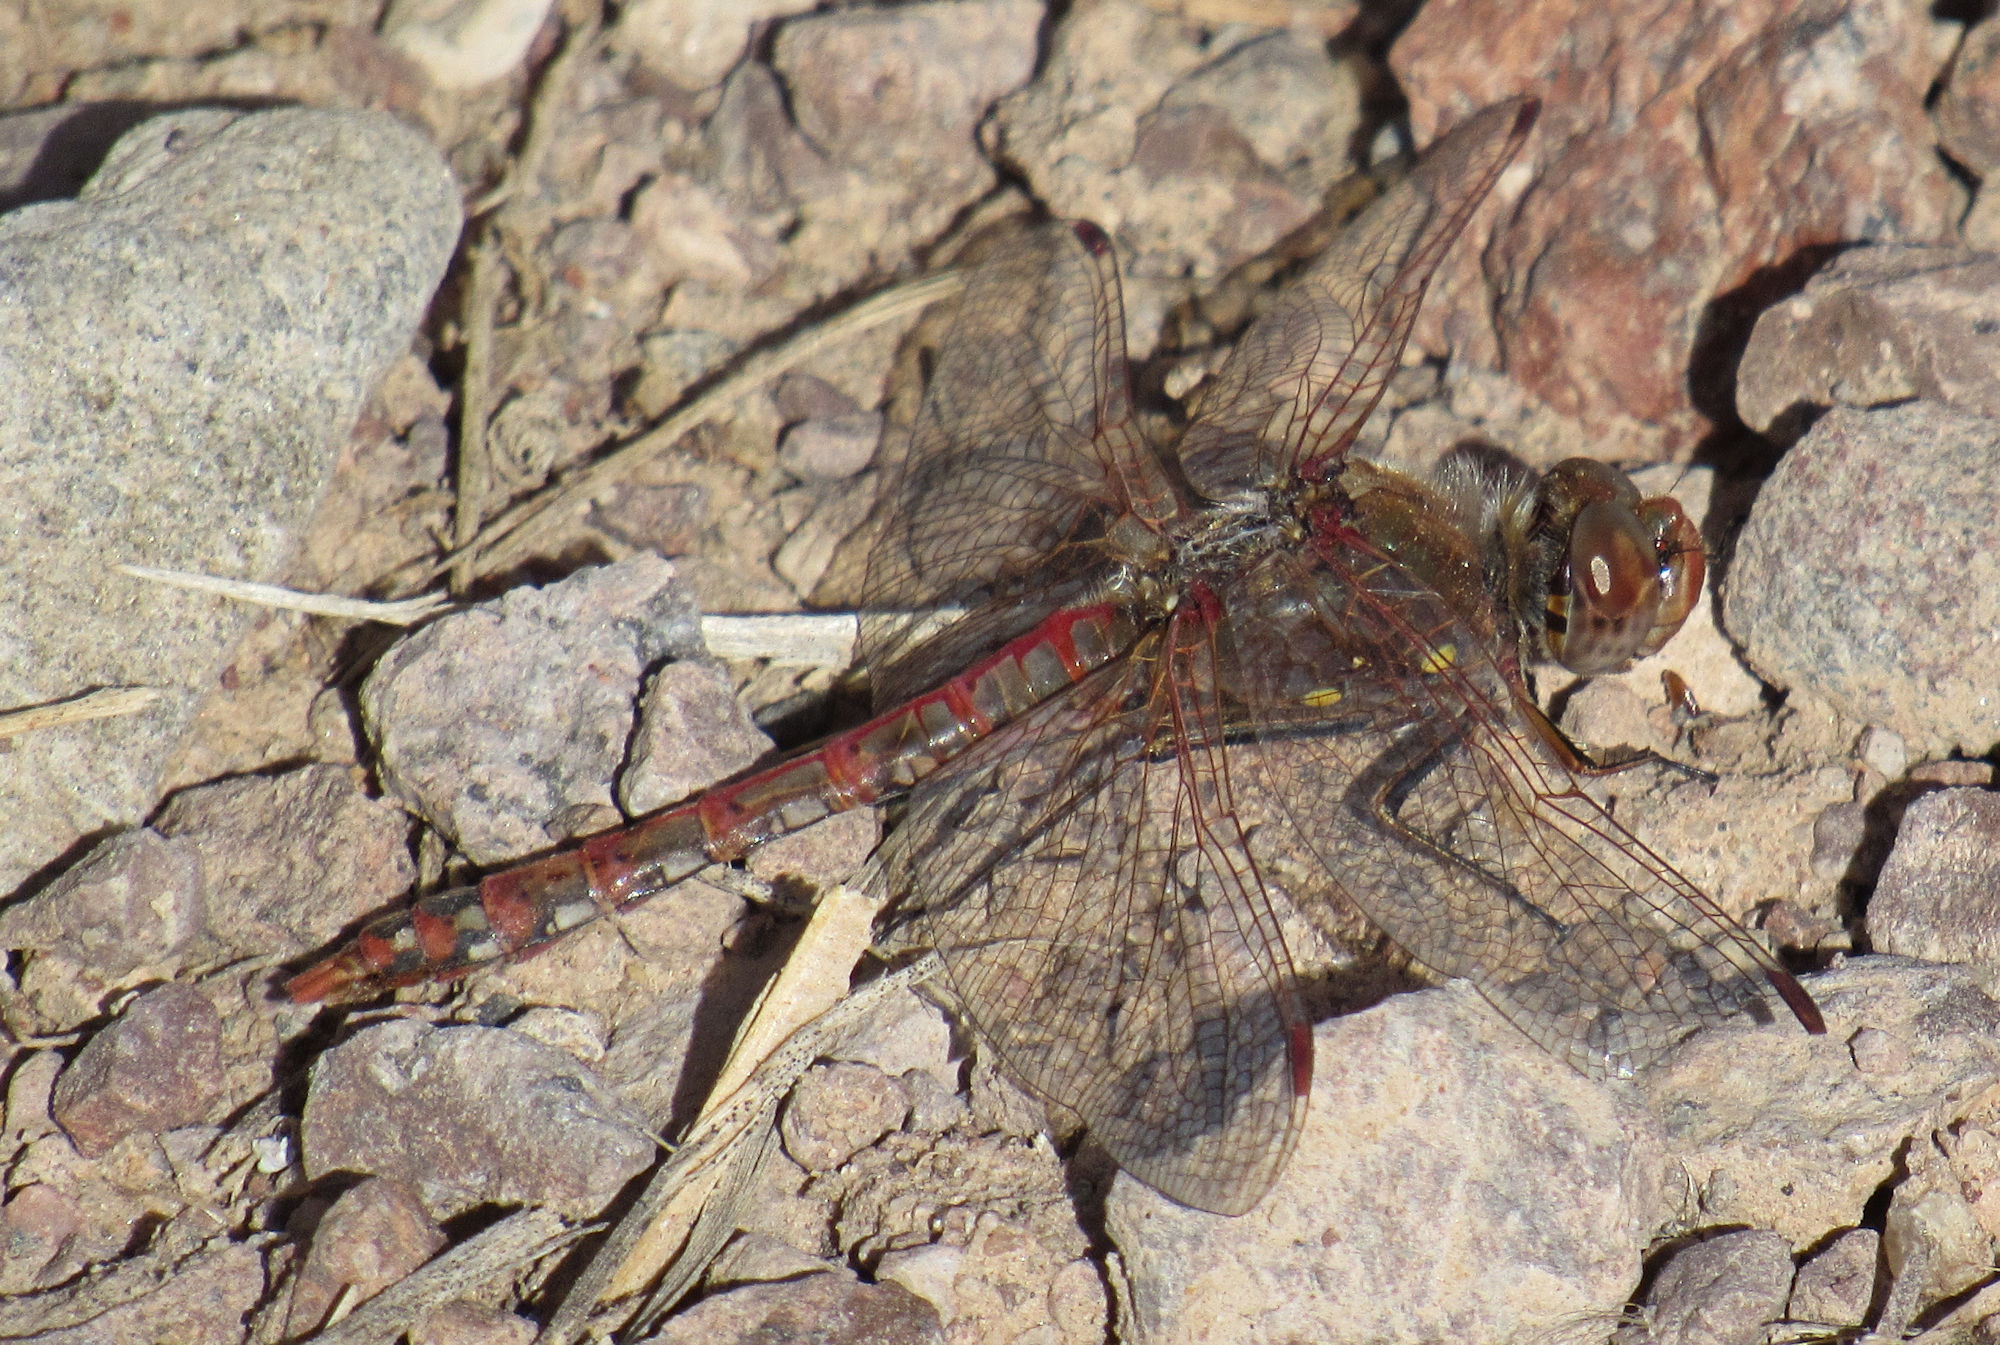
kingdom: Animalia
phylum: Arthropoda
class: Insecta
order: Odonata
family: Libellulidae
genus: Sympetrum
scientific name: Sympetrum corruptum
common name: Variegated meadowhawk
